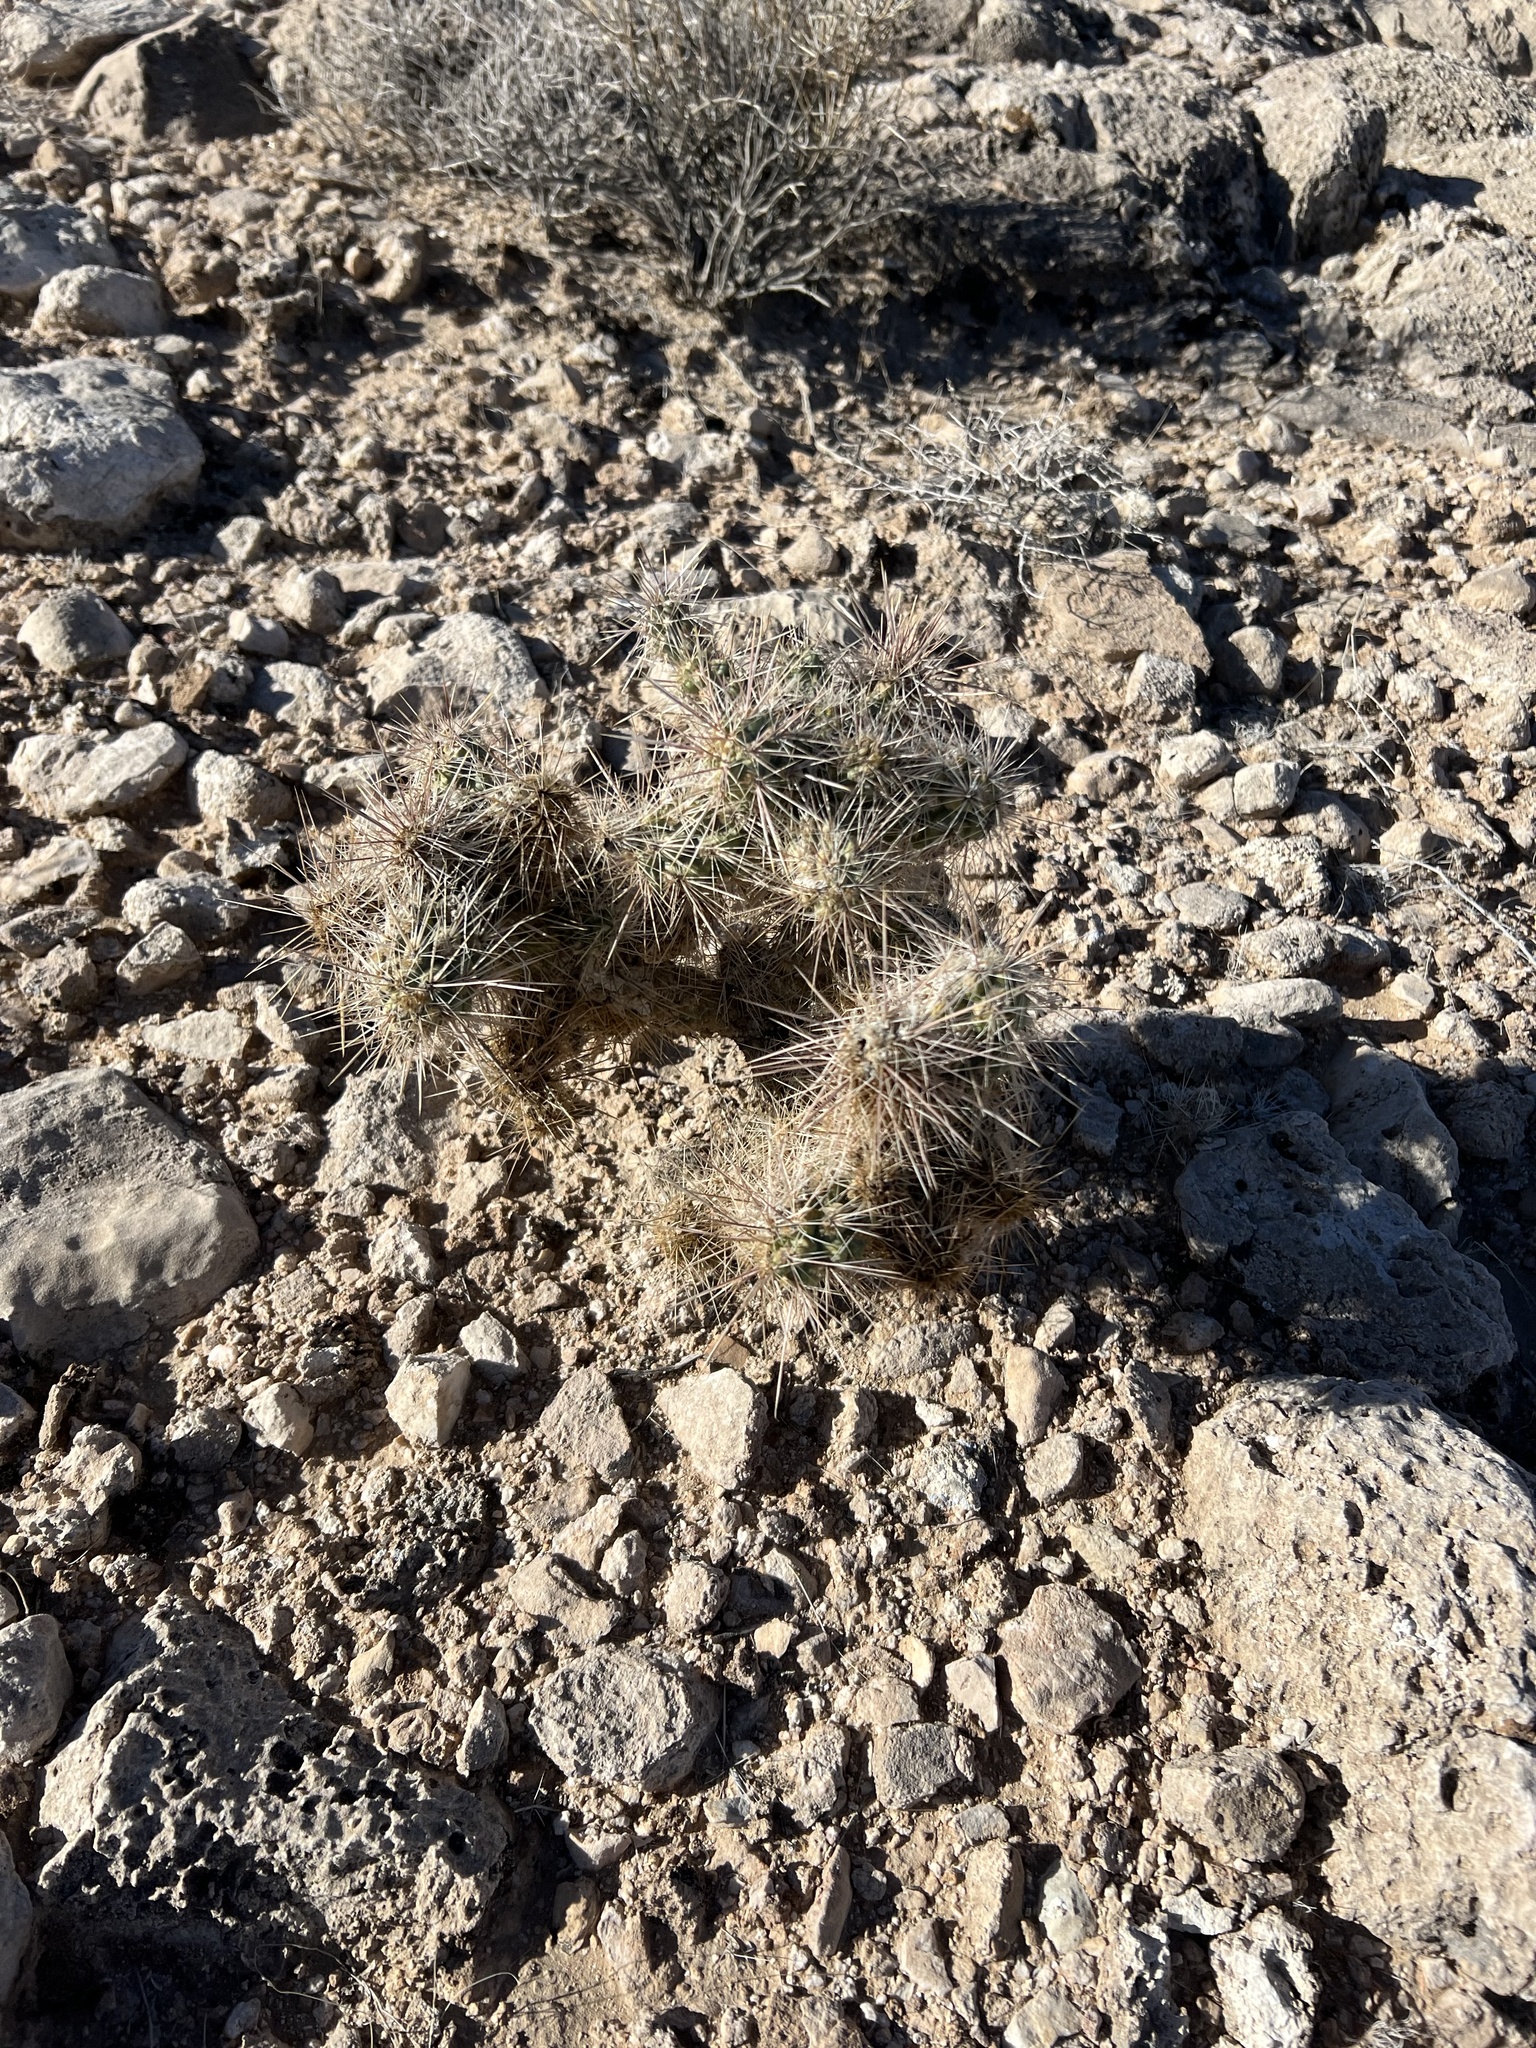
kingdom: Plantae
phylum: Tracheophyta
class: Magnoliopsida
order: Caryophyllales
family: Cactaceae
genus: Cylindropuntia
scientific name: Cylindropuntia echinocarpa
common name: Ground cholla
